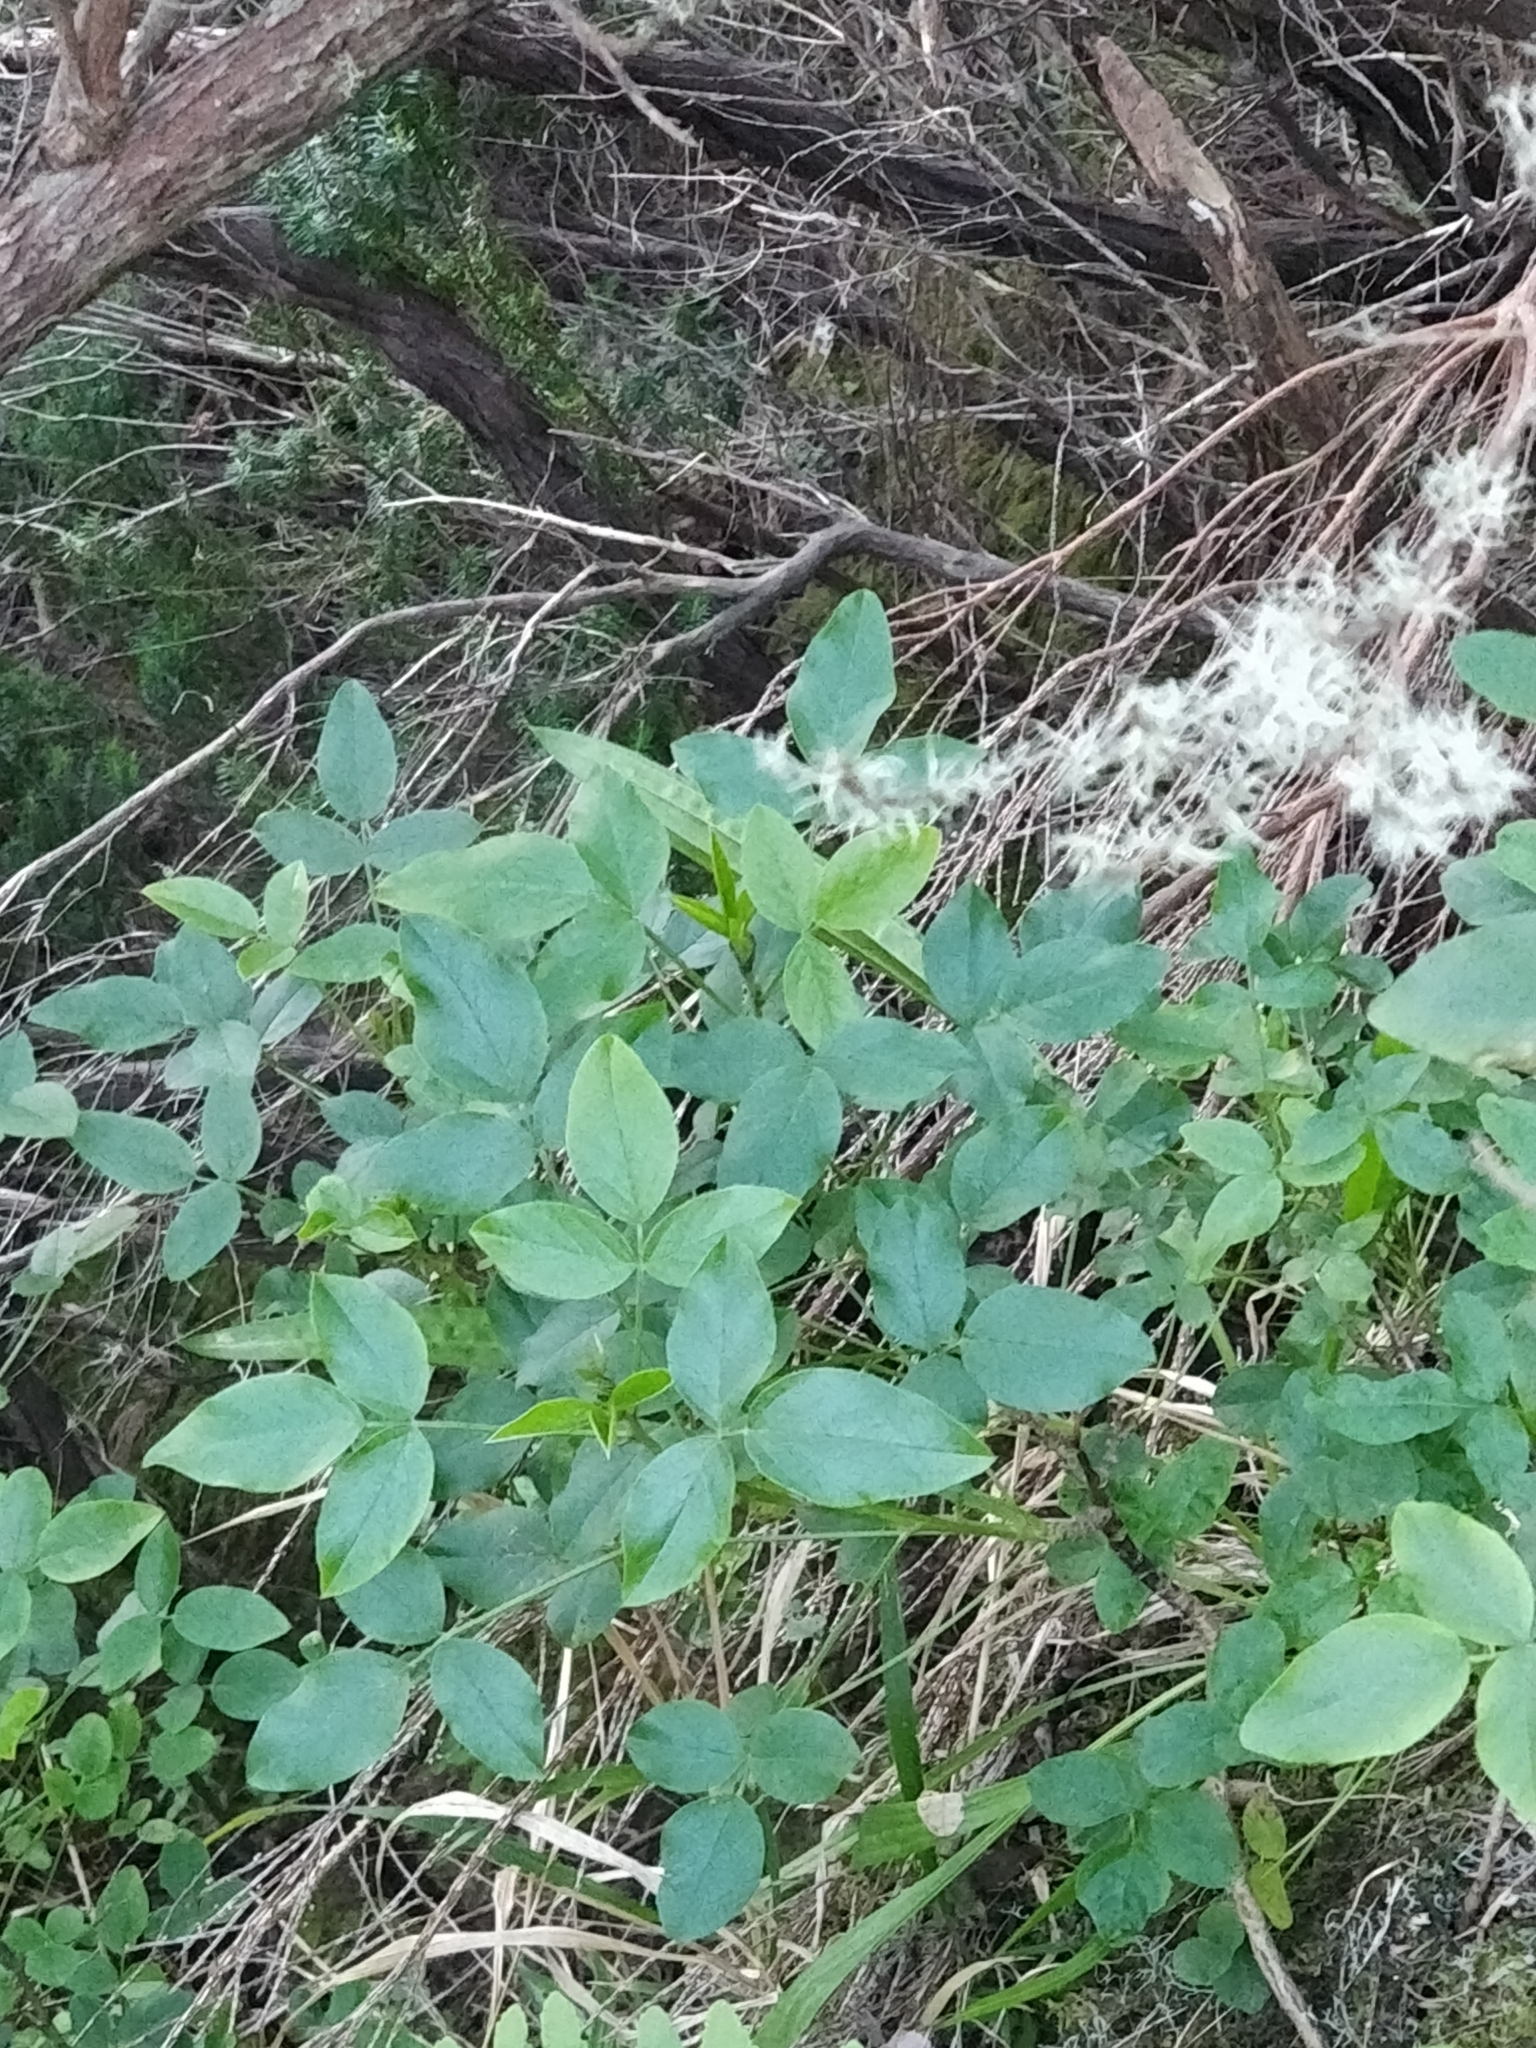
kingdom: Plantae
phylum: Tracheophyta
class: Magnoliopsida
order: Fabales
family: Fabaceae
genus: Bituminaria
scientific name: Bituminaria bituminosa
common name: Arabian pea
